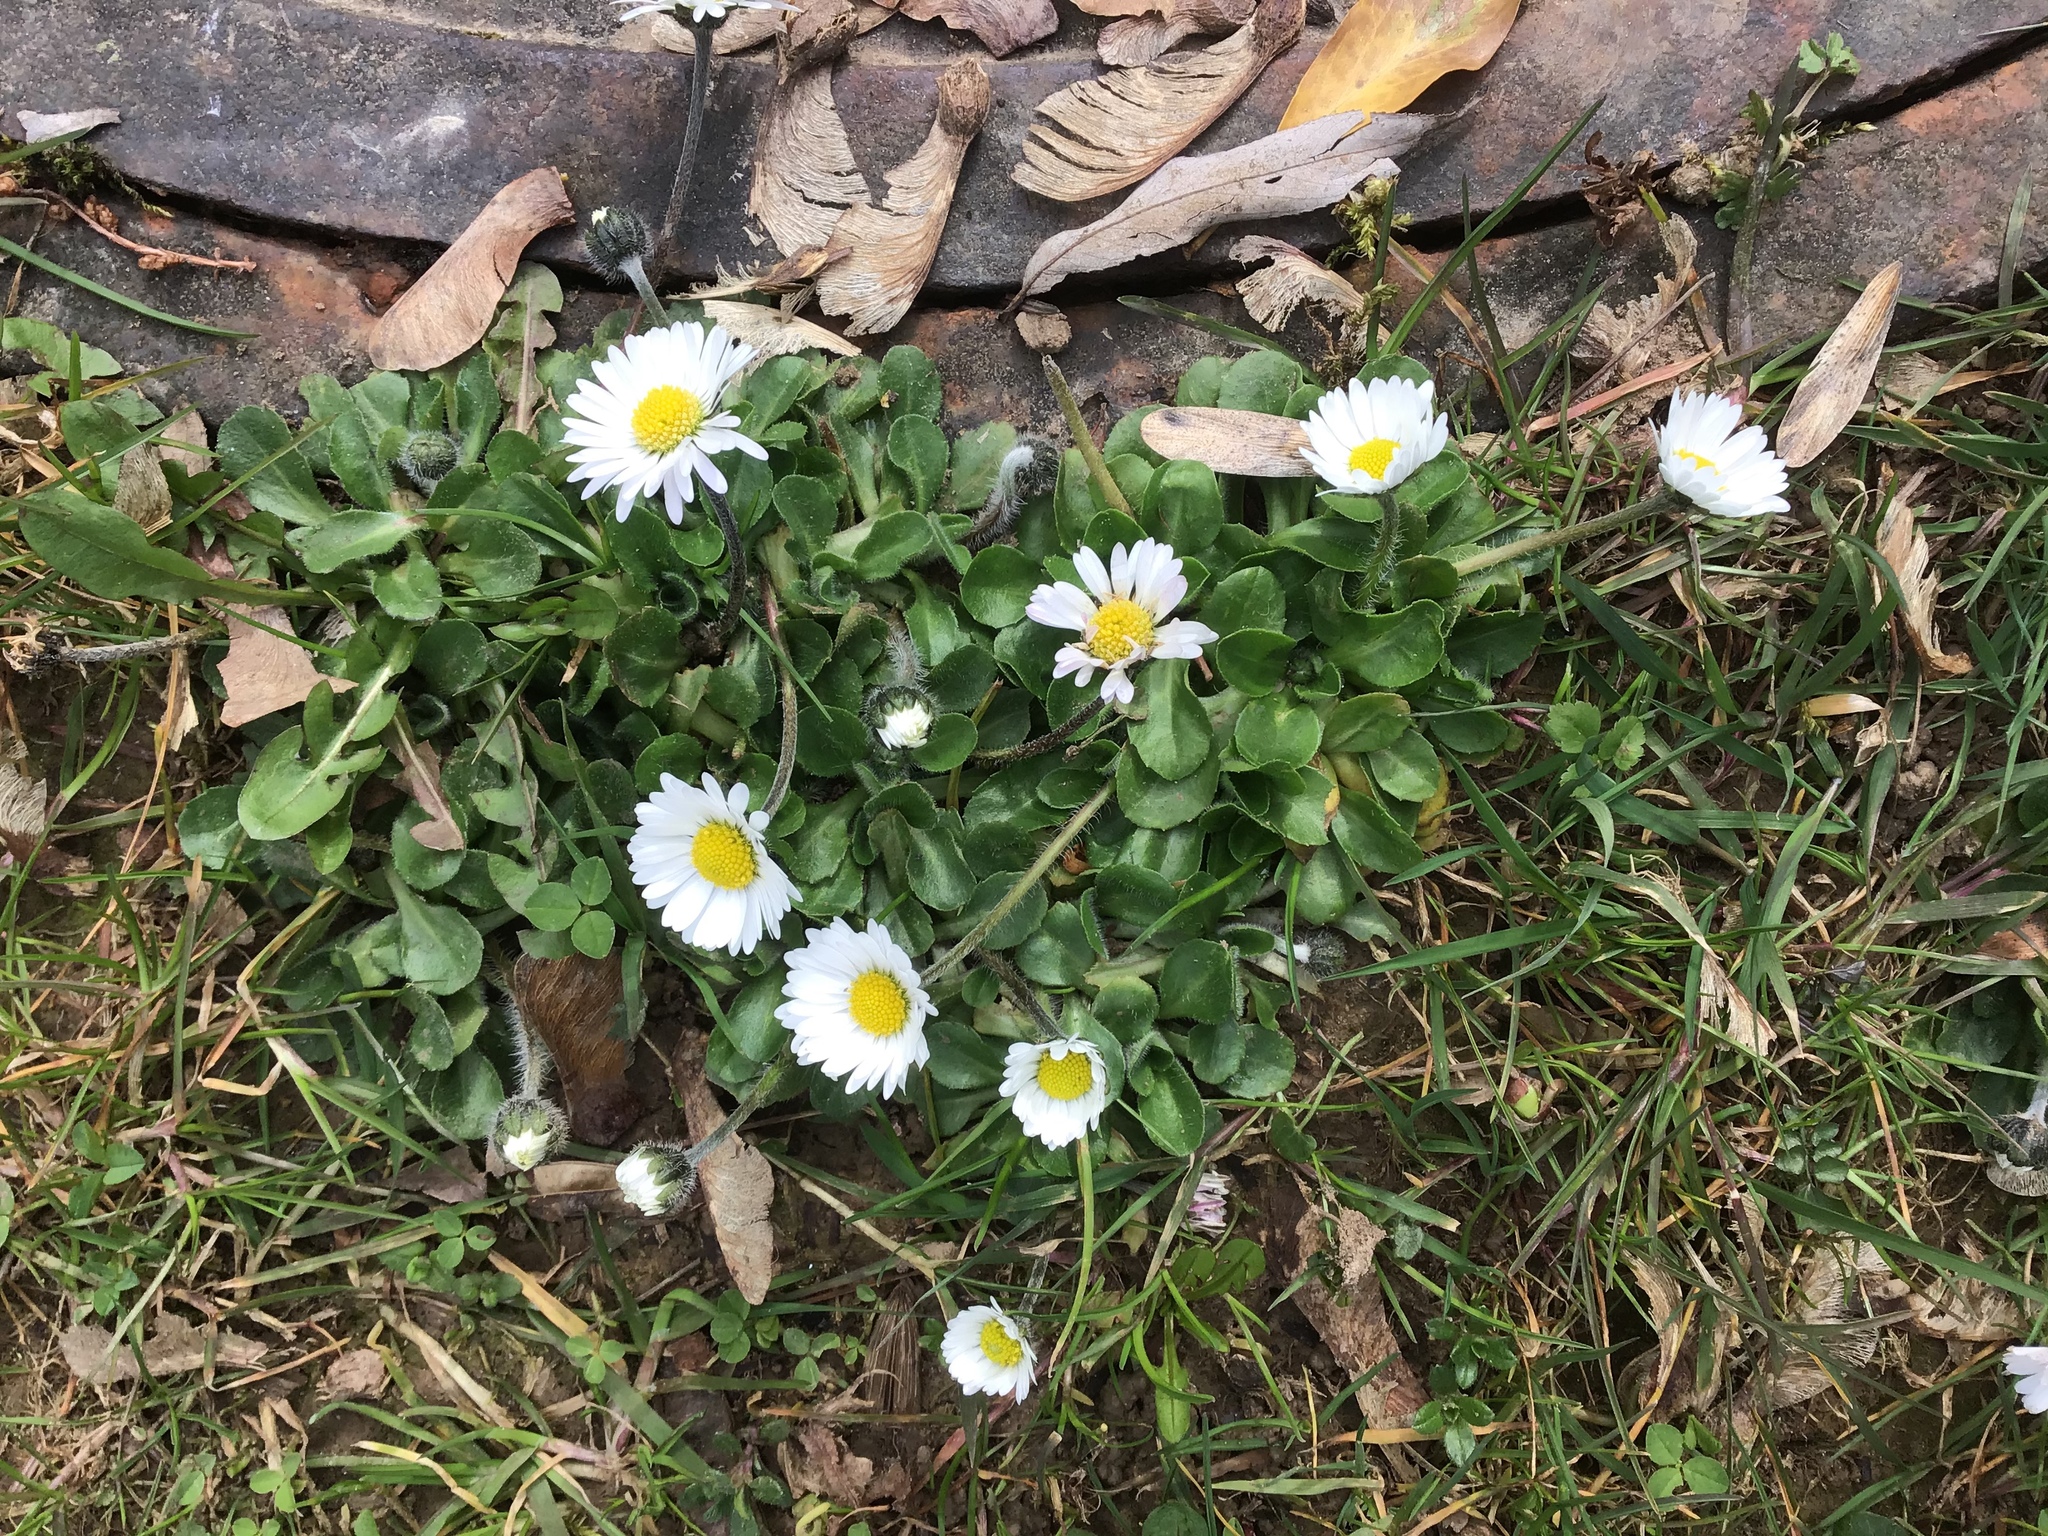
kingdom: Plantae
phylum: Tracheophyta
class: Magnoliopsida
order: Asterales
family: Asteraceae
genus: Bellis
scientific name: Bellis perennis
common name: Lawndaisy
